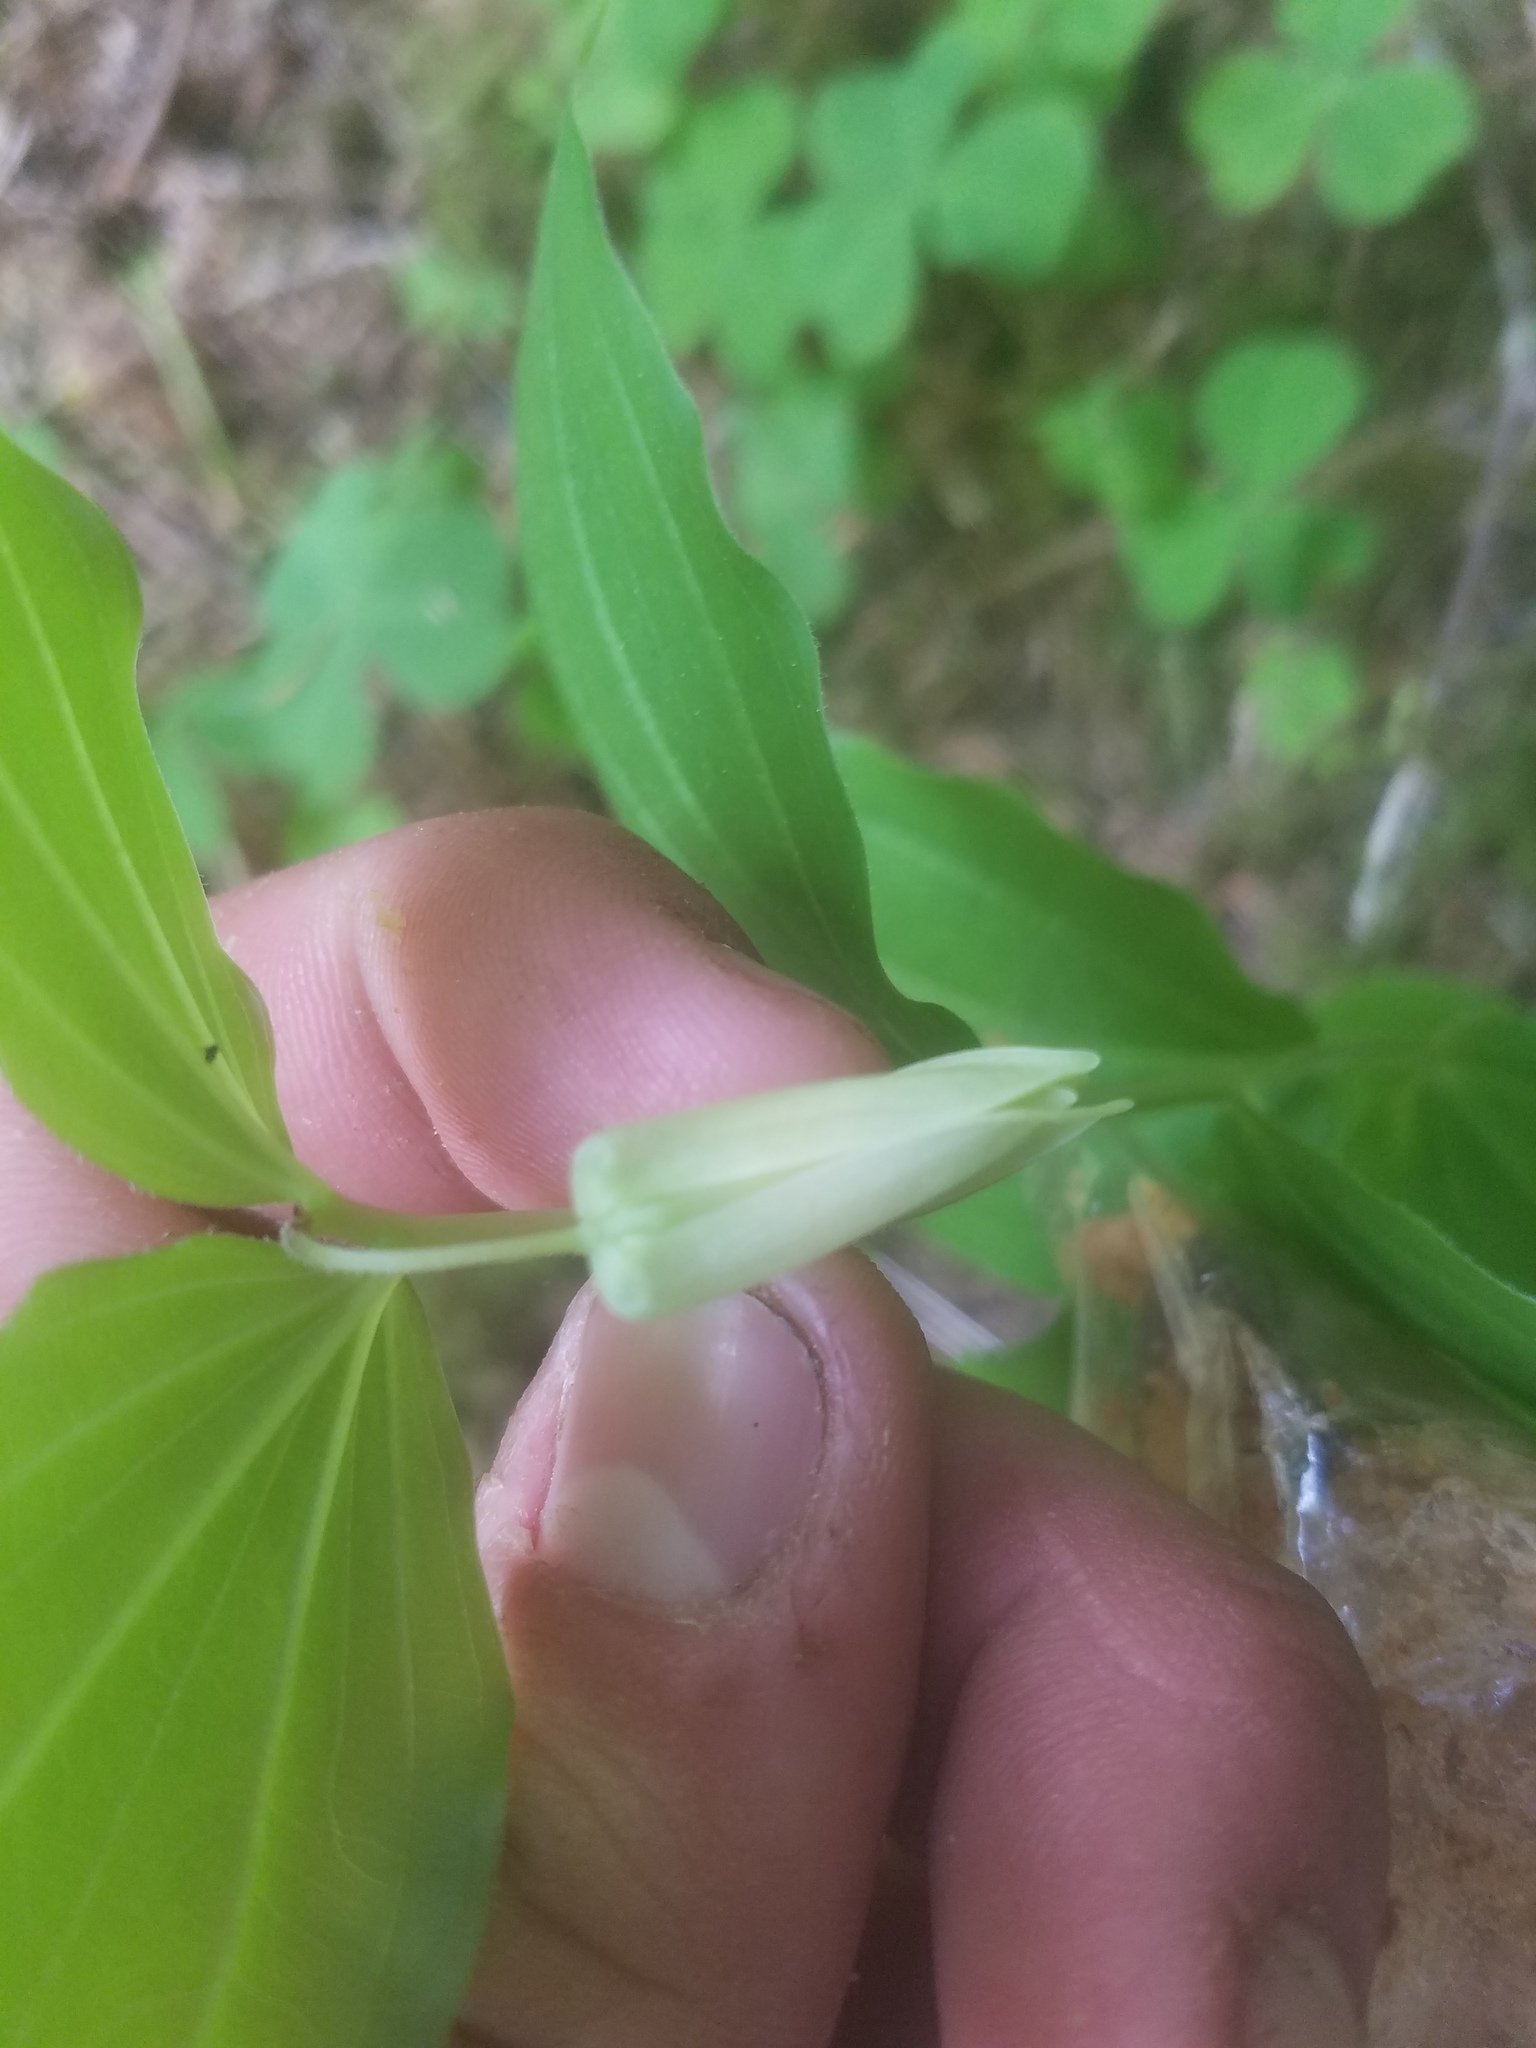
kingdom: Plantae
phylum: Tracheophyta
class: Liliopsida
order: Liliales
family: Liliaceae
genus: Prosartes
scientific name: Prosartes smithii
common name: Fairy-lantern
